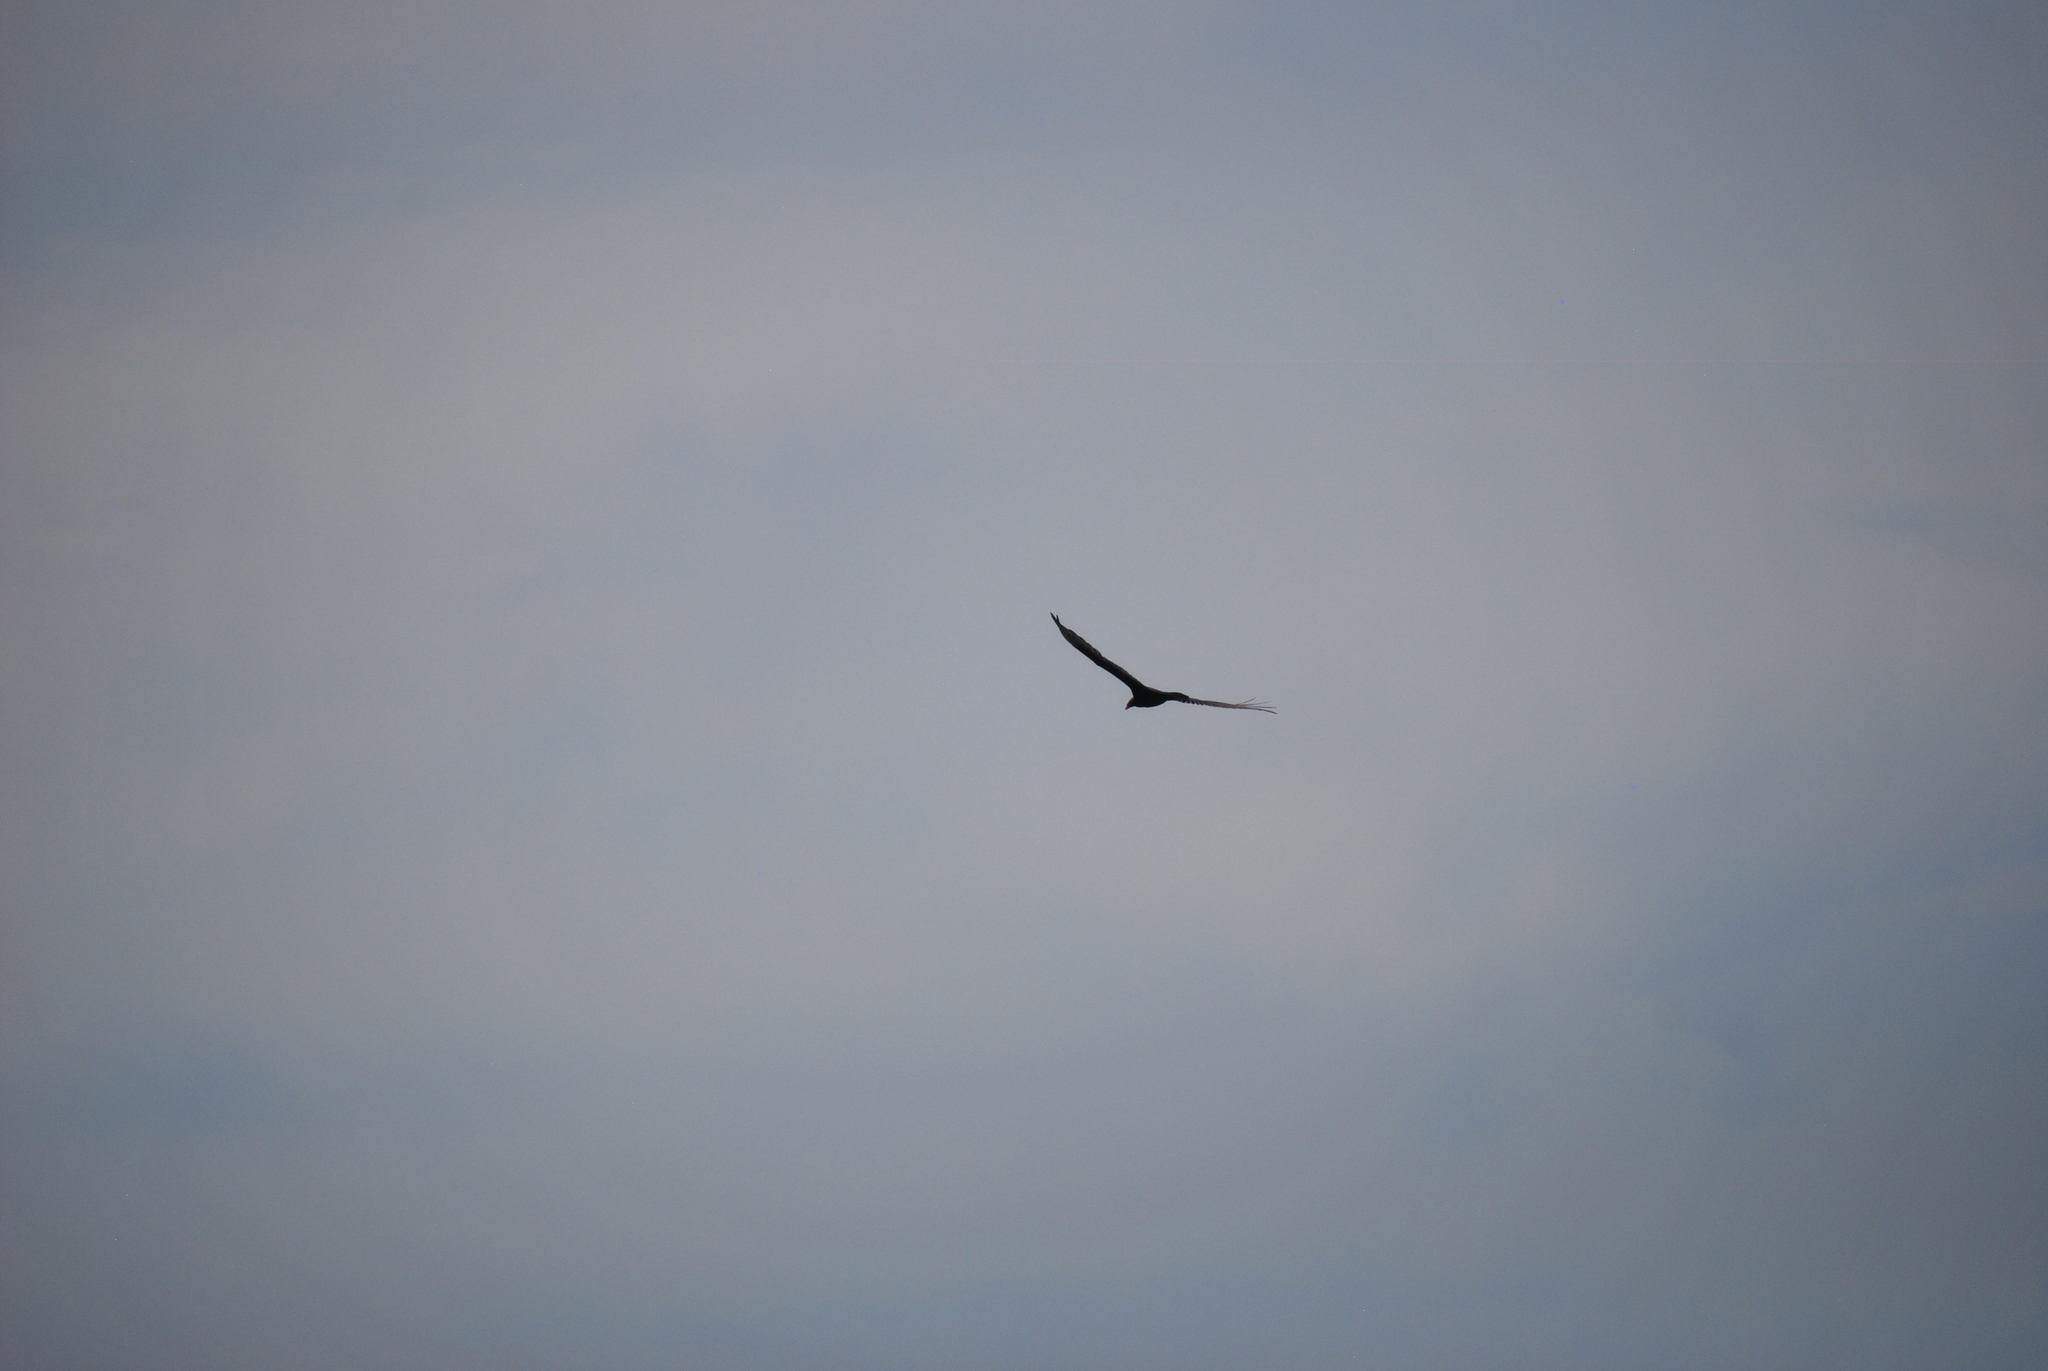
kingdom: Animalia
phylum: Chordata
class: Aves
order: Accipitriformes
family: Cathartidae
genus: Cathartes
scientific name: Cathartes aura
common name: Turkey vulture
